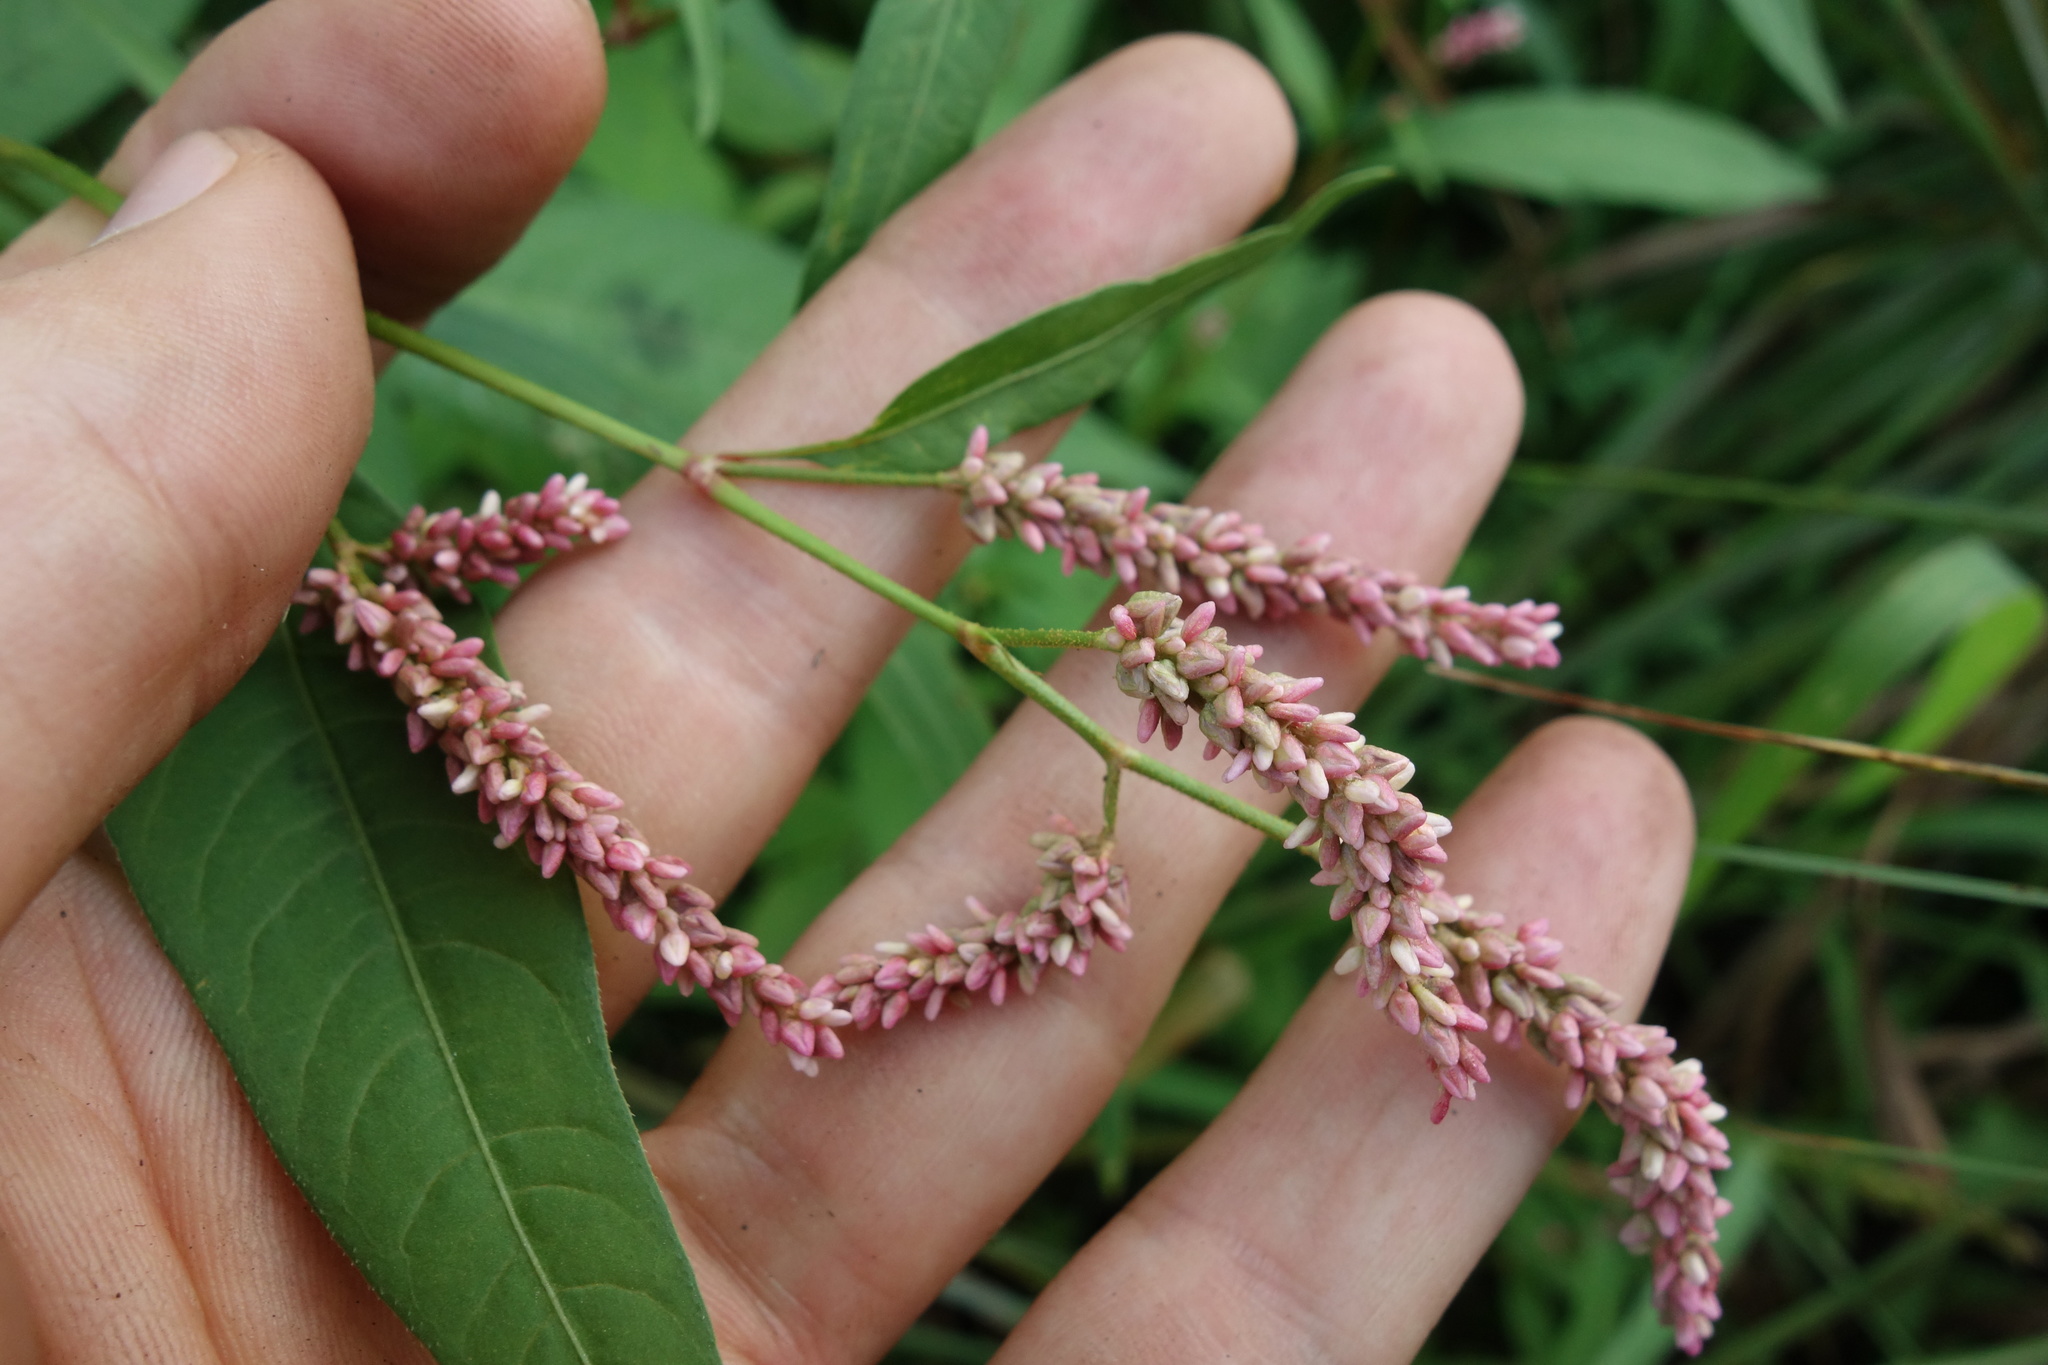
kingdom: Plantae
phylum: Tracheophyta
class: Magnoliopsida
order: Caryophyllales
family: Polygonaceae
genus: Persicaria
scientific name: Persicaria maculosa
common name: Redshank
